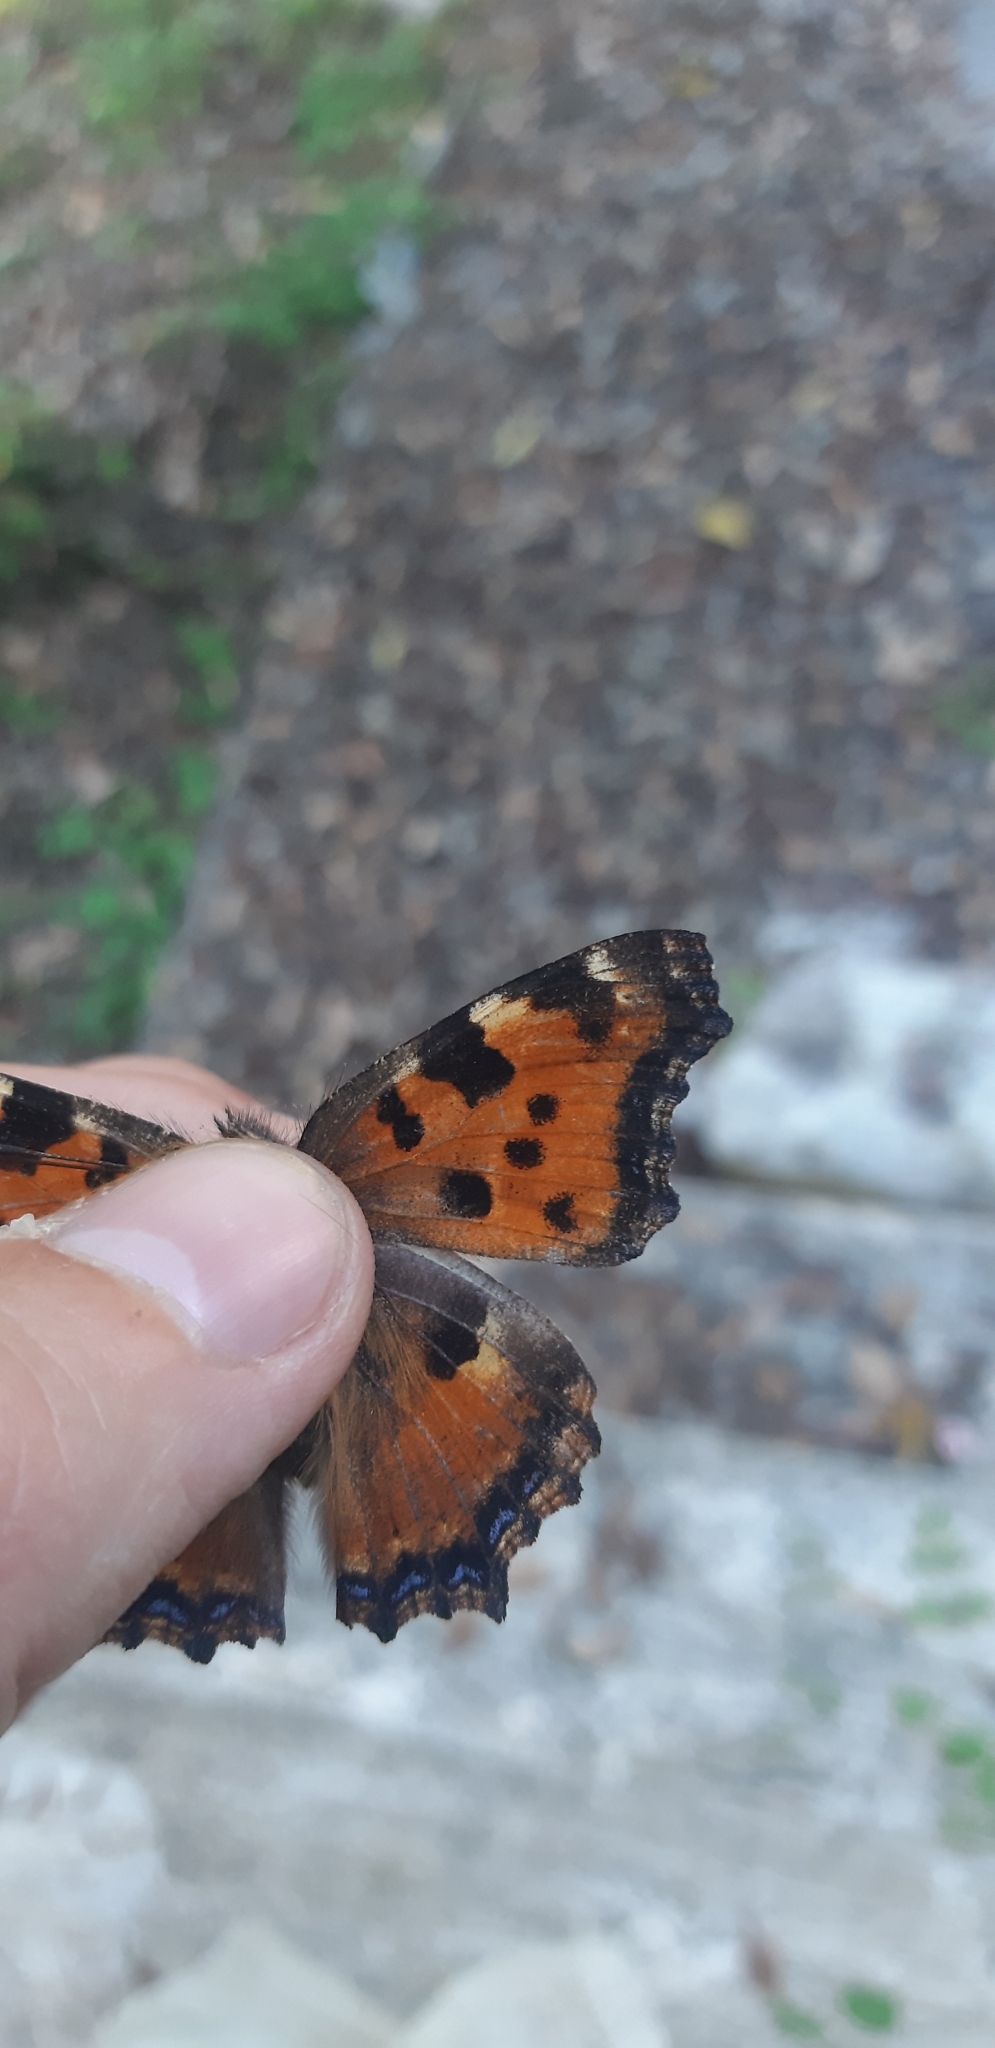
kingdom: Animalia
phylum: Arthropoda
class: Insecta
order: Lepidoptera
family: Nymphalidae
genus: Nymphalis
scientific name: Nymphalis polychloros
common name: Large tortoiseshell
